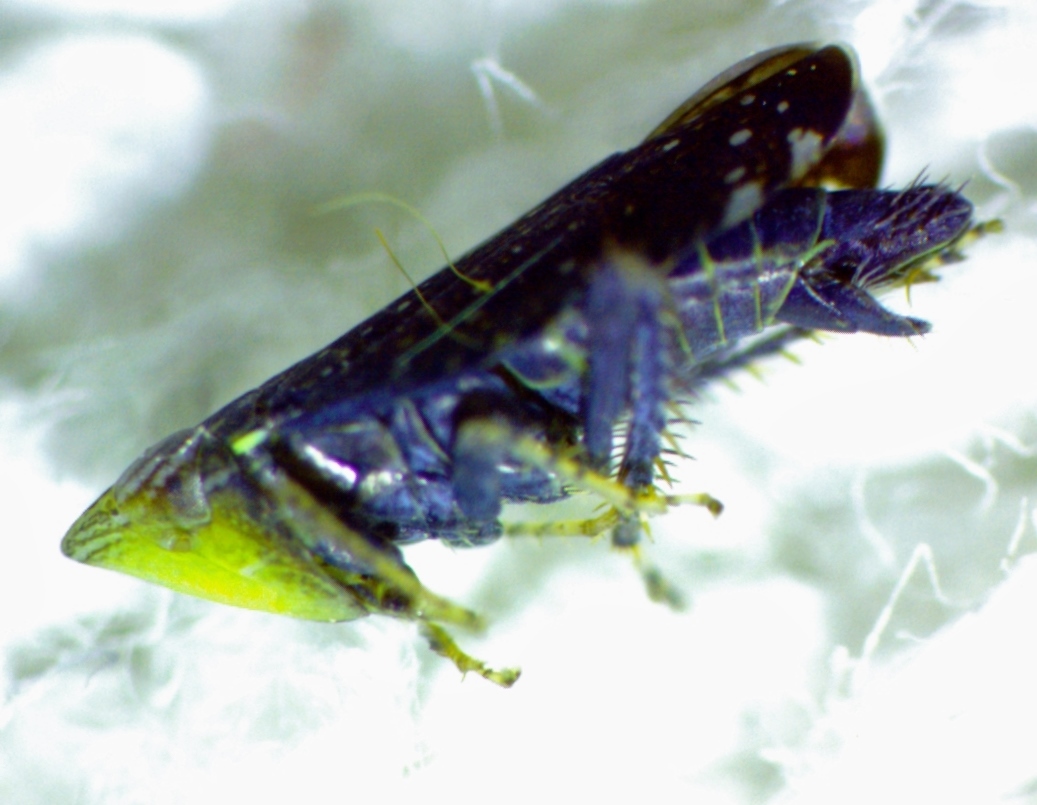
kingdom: Animalia
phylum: Arthropoda
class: Insecta
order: Hemiptera
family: Cicadellidae
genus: Scaphytopius
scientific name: Scaphytopius frontalis
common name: The yellow-faced leafhopper
